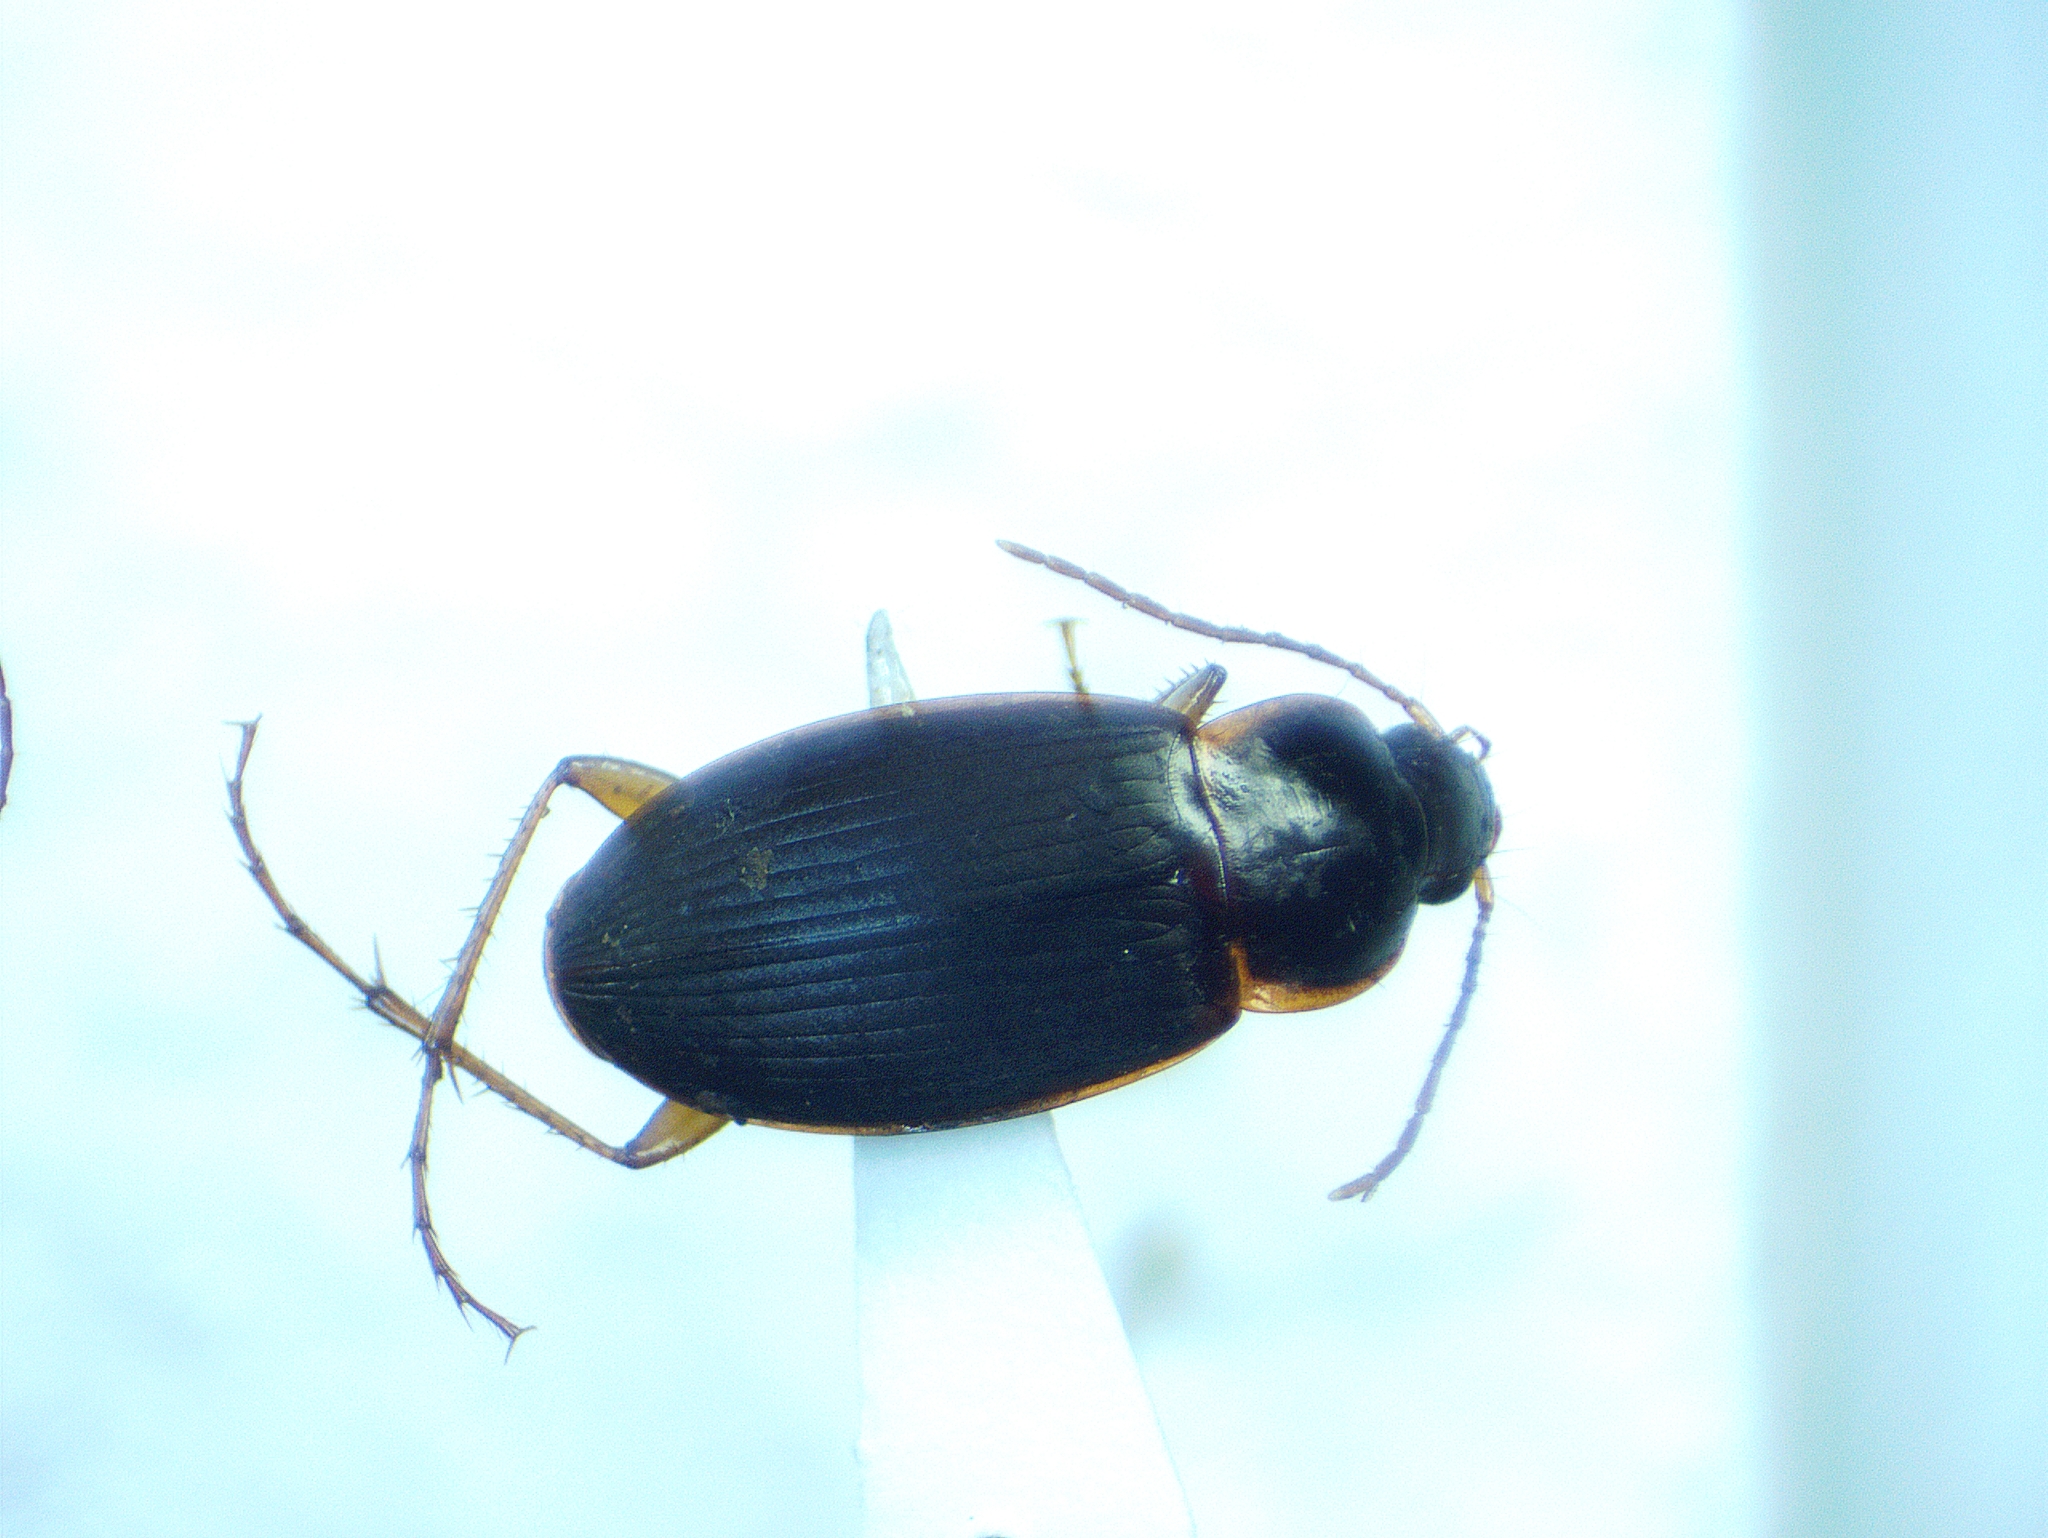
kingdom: Animalia
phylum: Arthropoda
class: Insecta
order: Coleoptera
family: Carabidae
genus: Calathus
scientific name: Calathus opaculus
